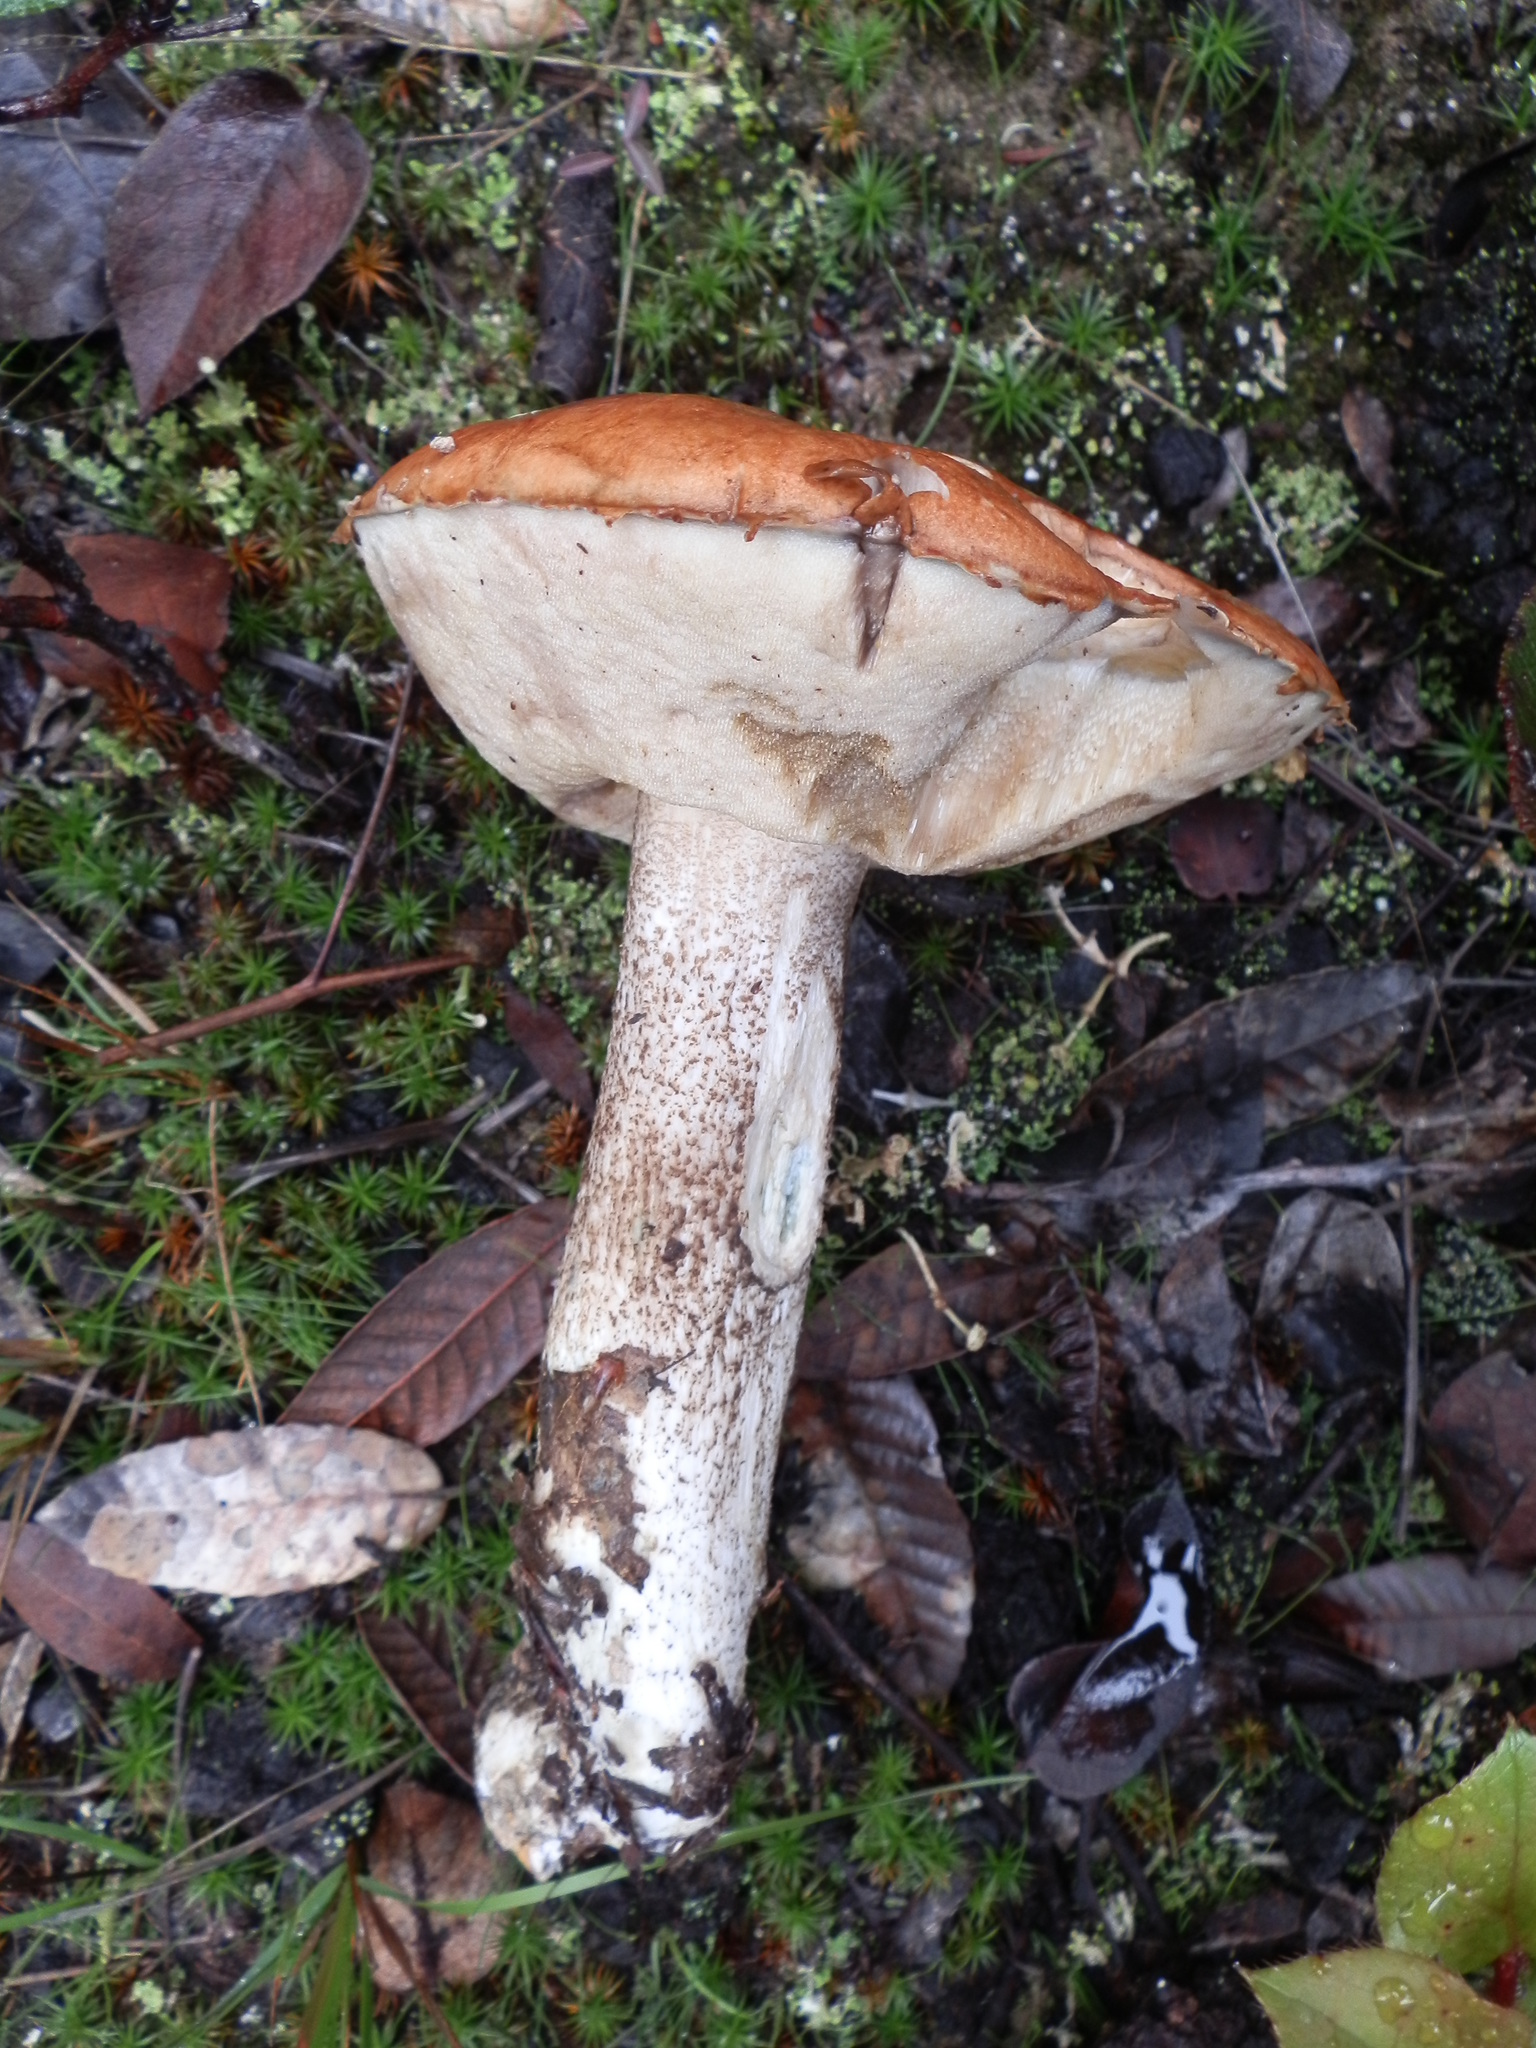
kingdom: Fungi
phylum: Basidiomycota
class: Agaricomycetes
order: Boletales
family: Boletaceae
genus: Leccinum
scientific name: Leccinum manzanitae
